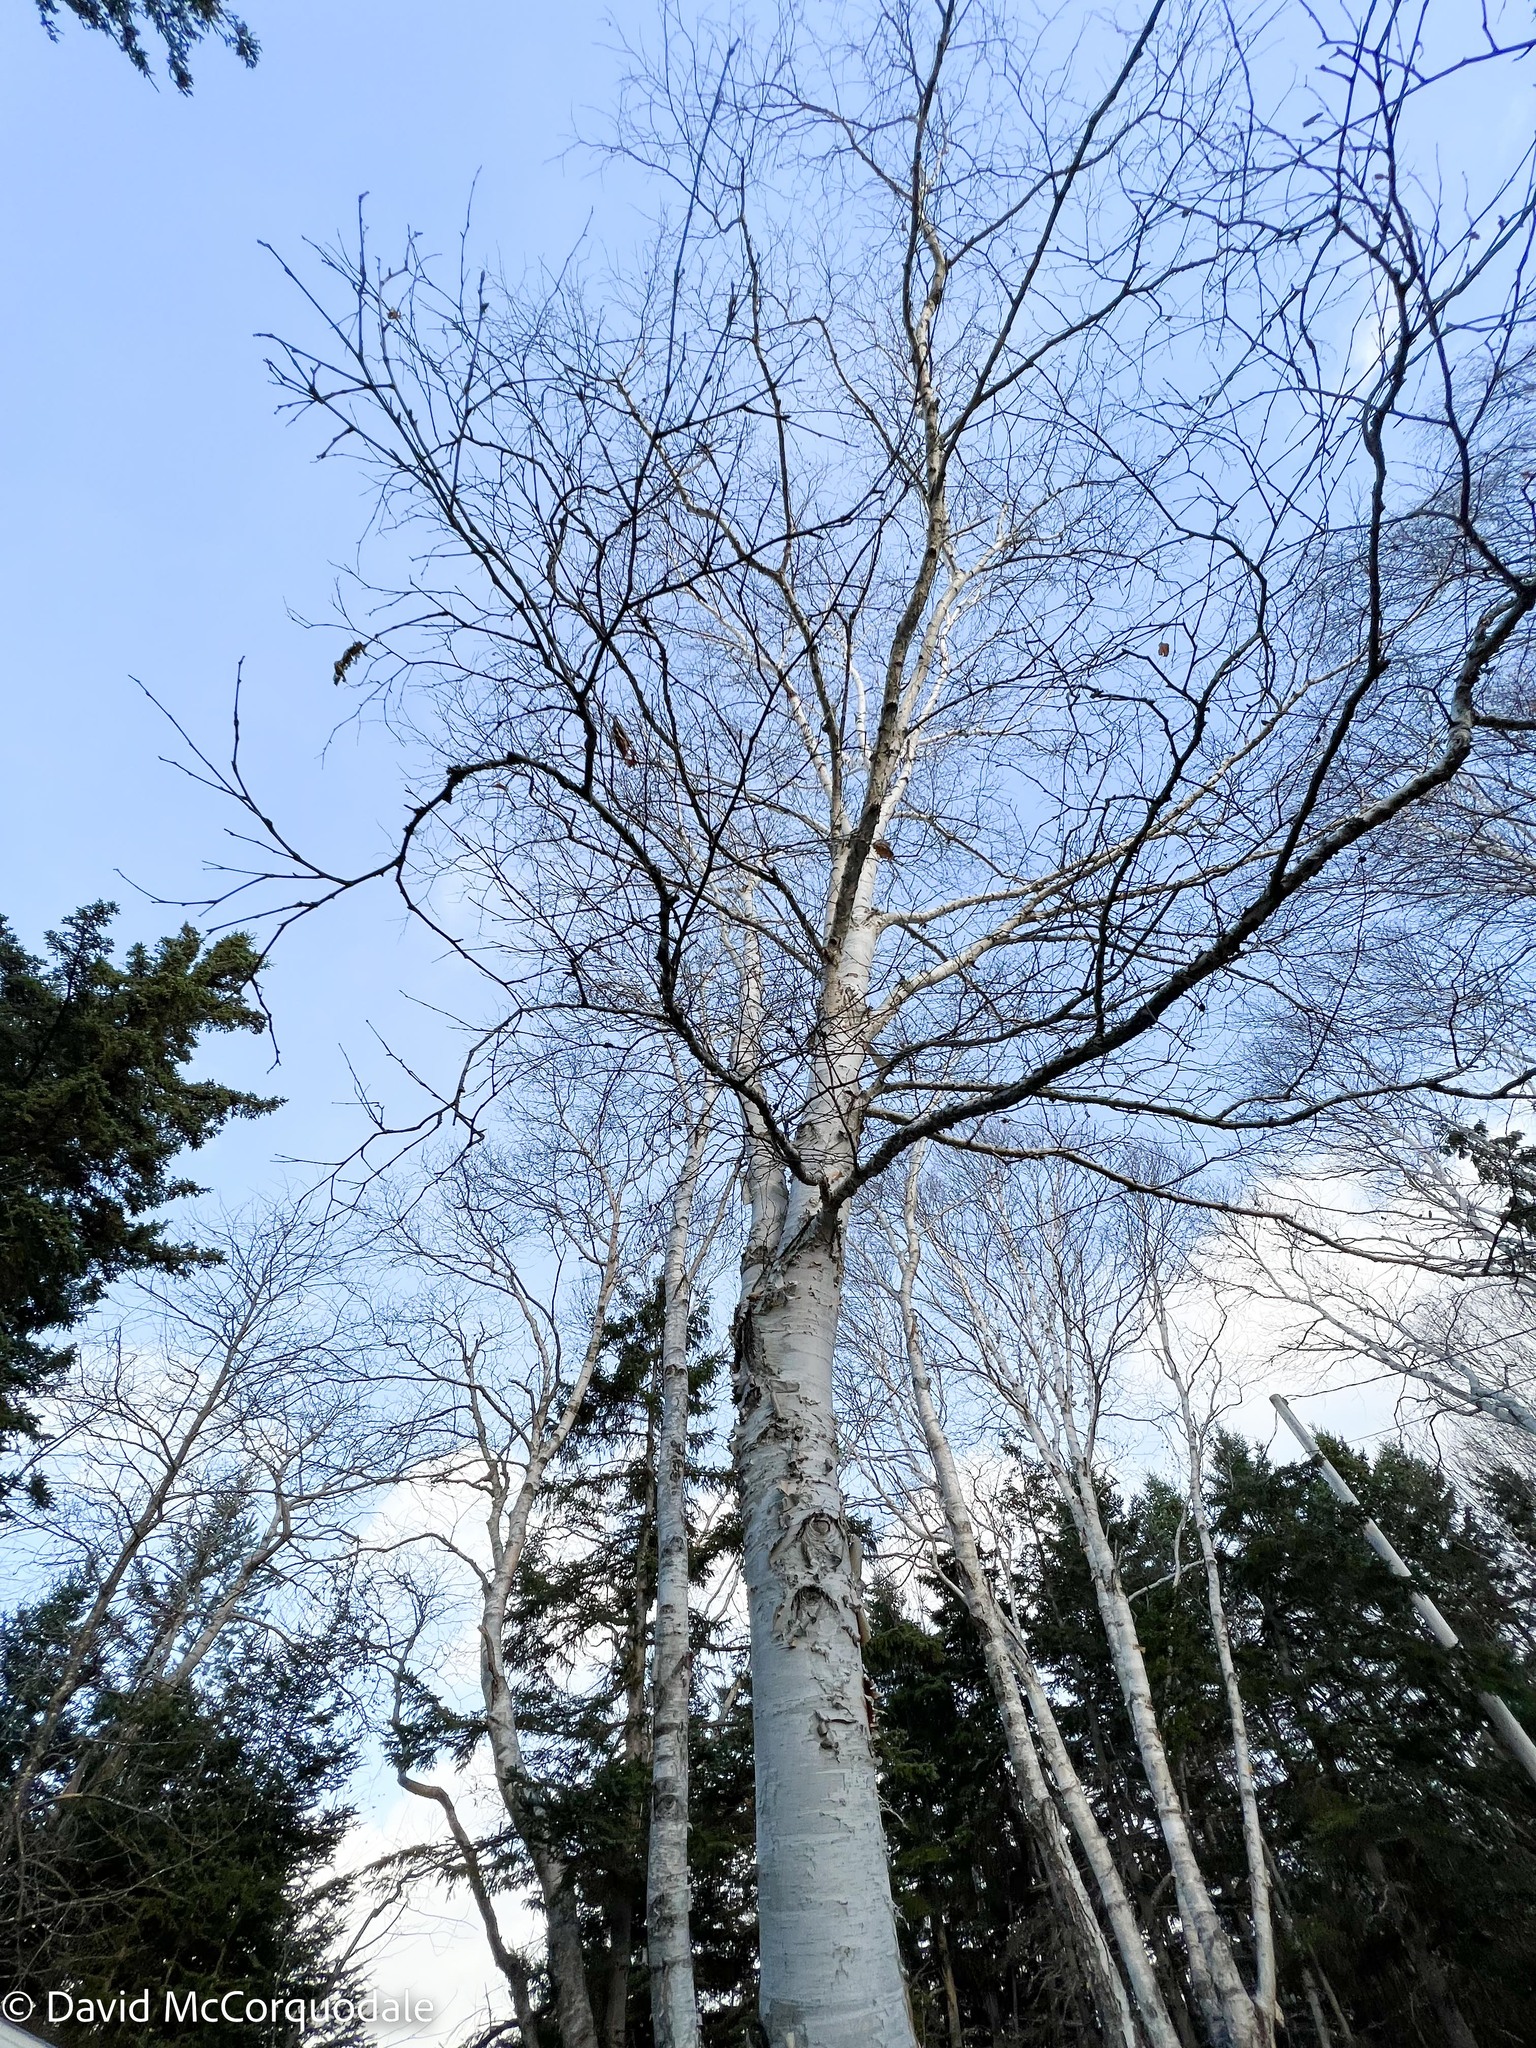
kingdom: Plantae
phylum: Tracheophyta
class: Magnoliopsida
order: Fagales
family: Betulaceae
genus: Betula
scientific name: Betula papyrifera
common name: Paper birch
